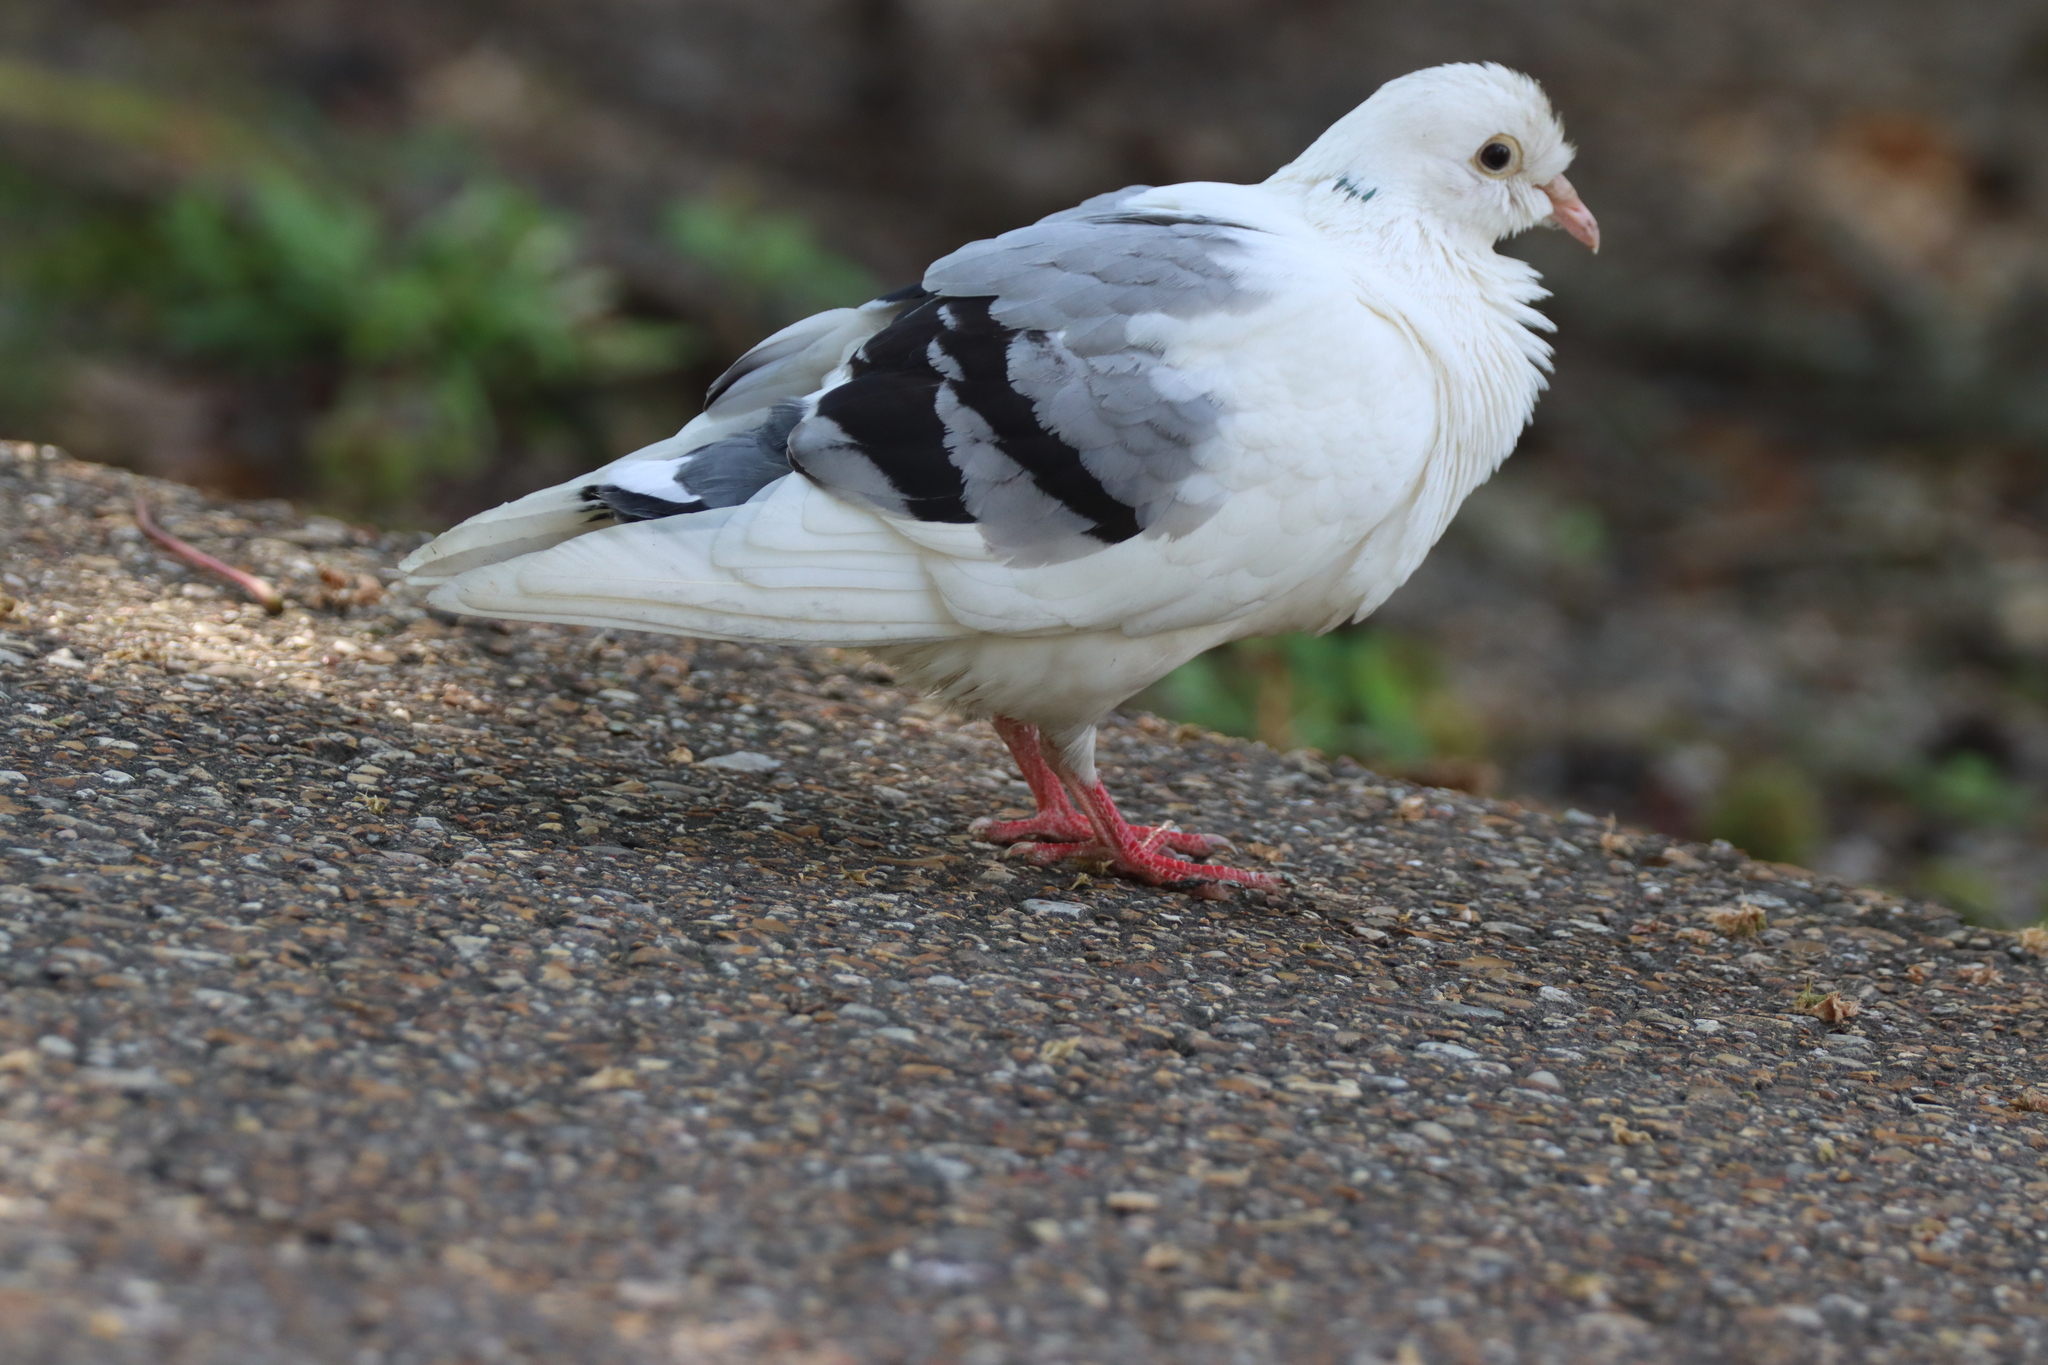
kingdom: Animalia
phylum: Chordata
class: Aves
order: Columbiformes
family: Columbidae
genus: Columba
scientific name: Columba livia
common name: Rock pigeon
